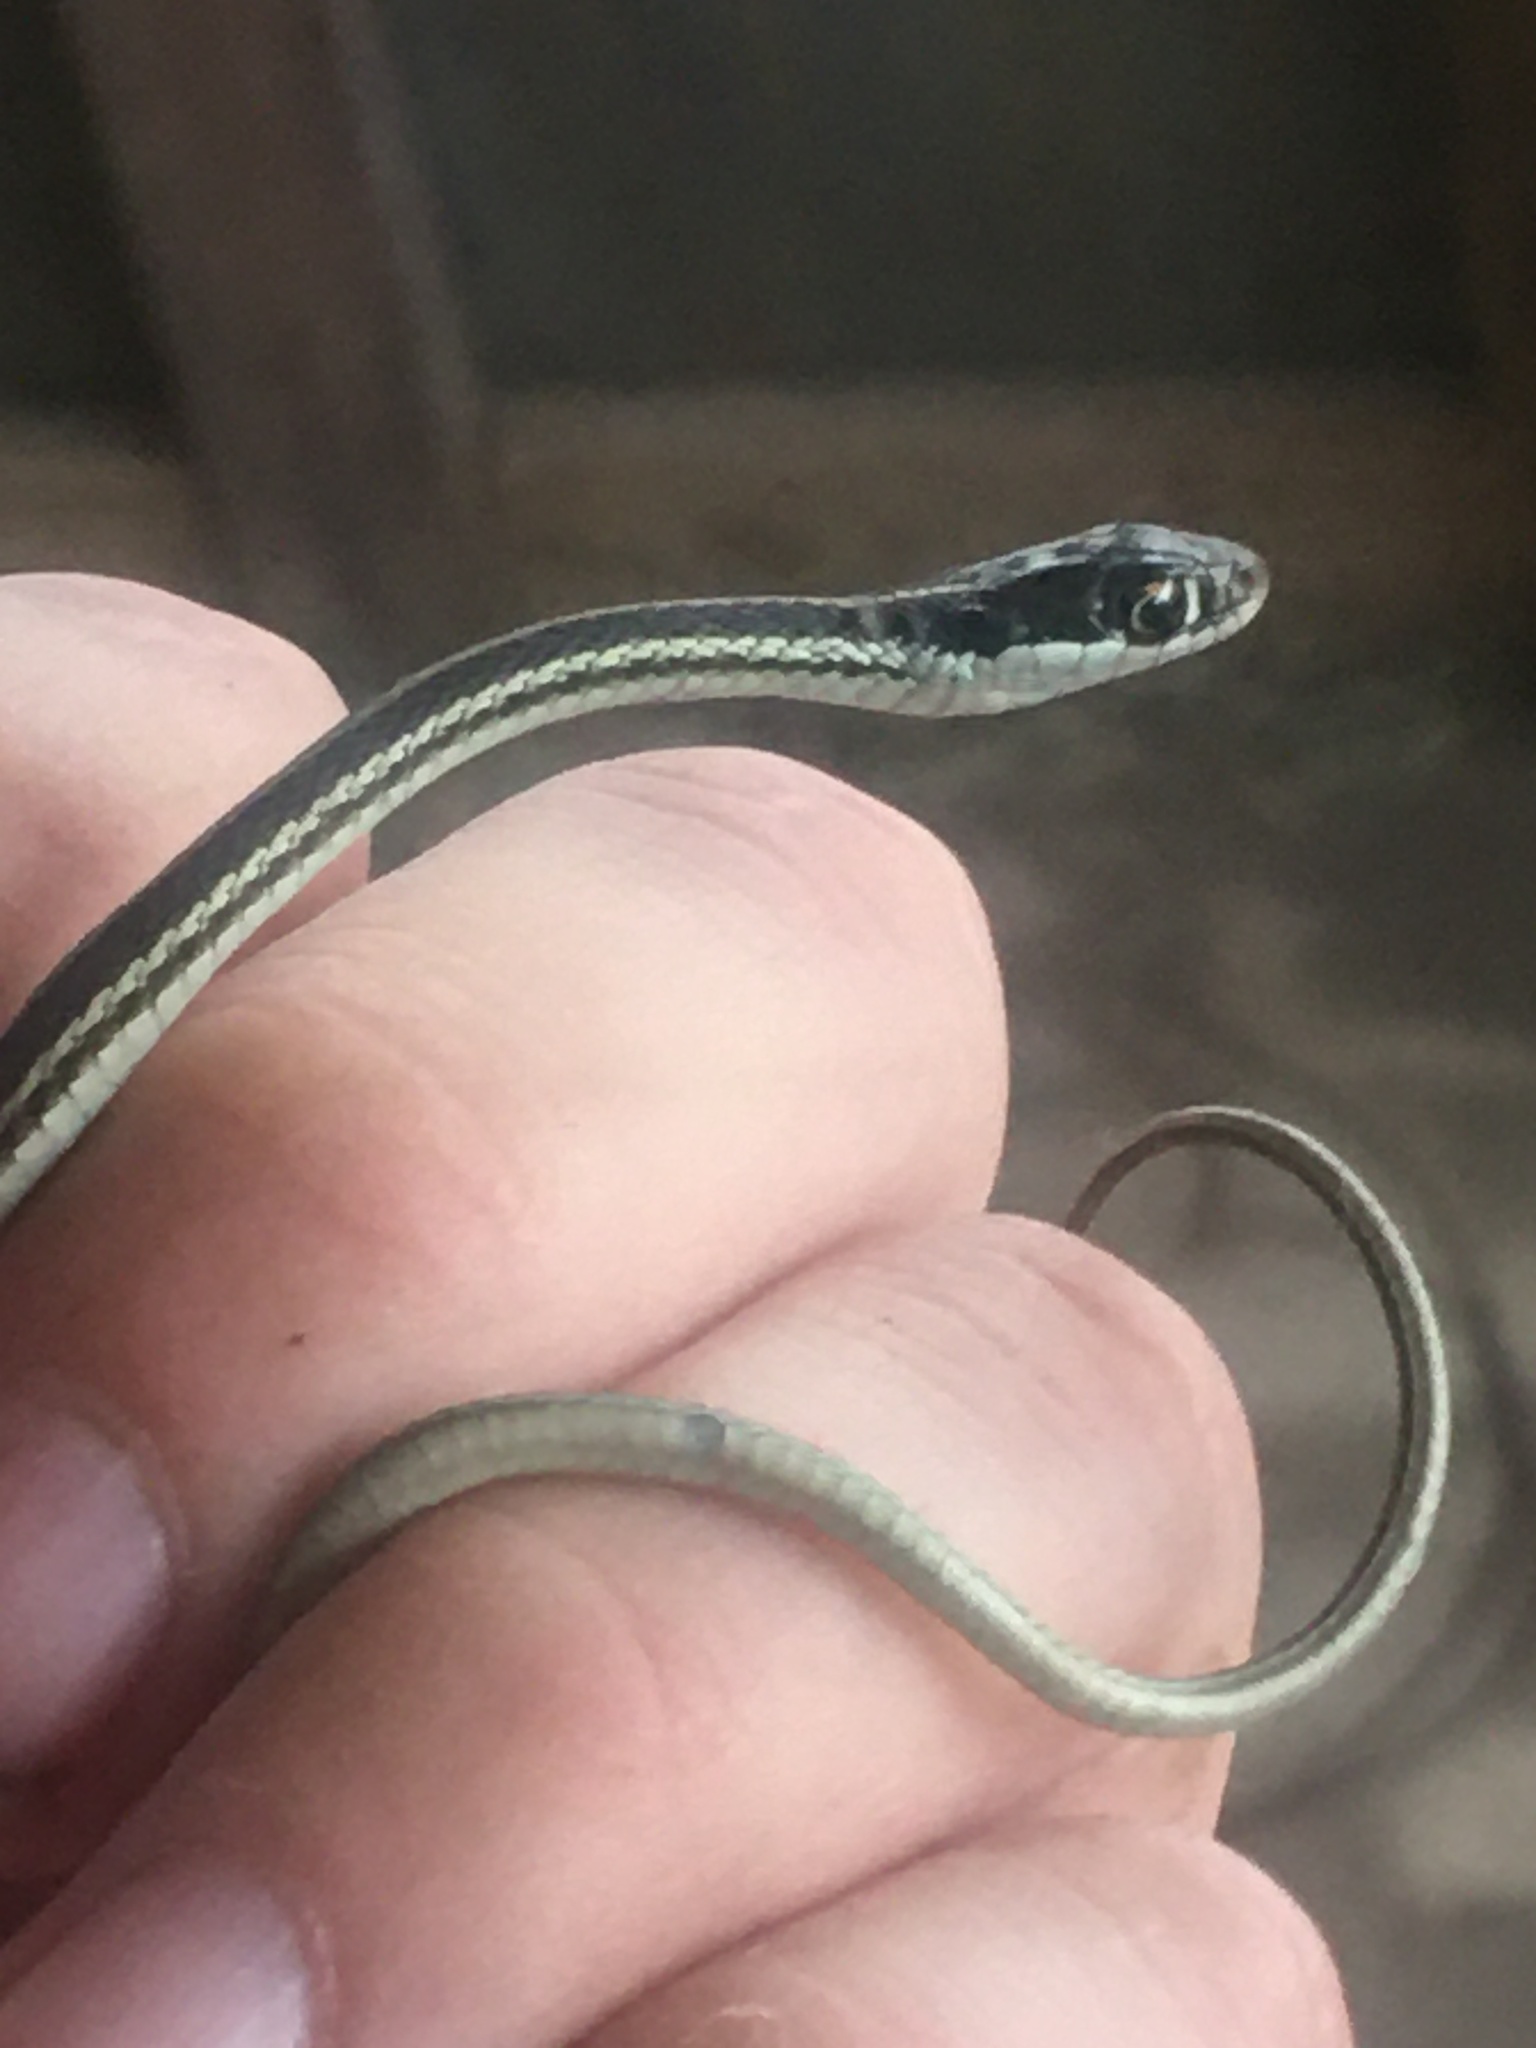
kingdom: Animalia
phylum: Chordata
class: Squamata
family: Colubridae
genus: Thamnophis
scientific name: Thamnophis proximus
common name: Western ribbon snake
